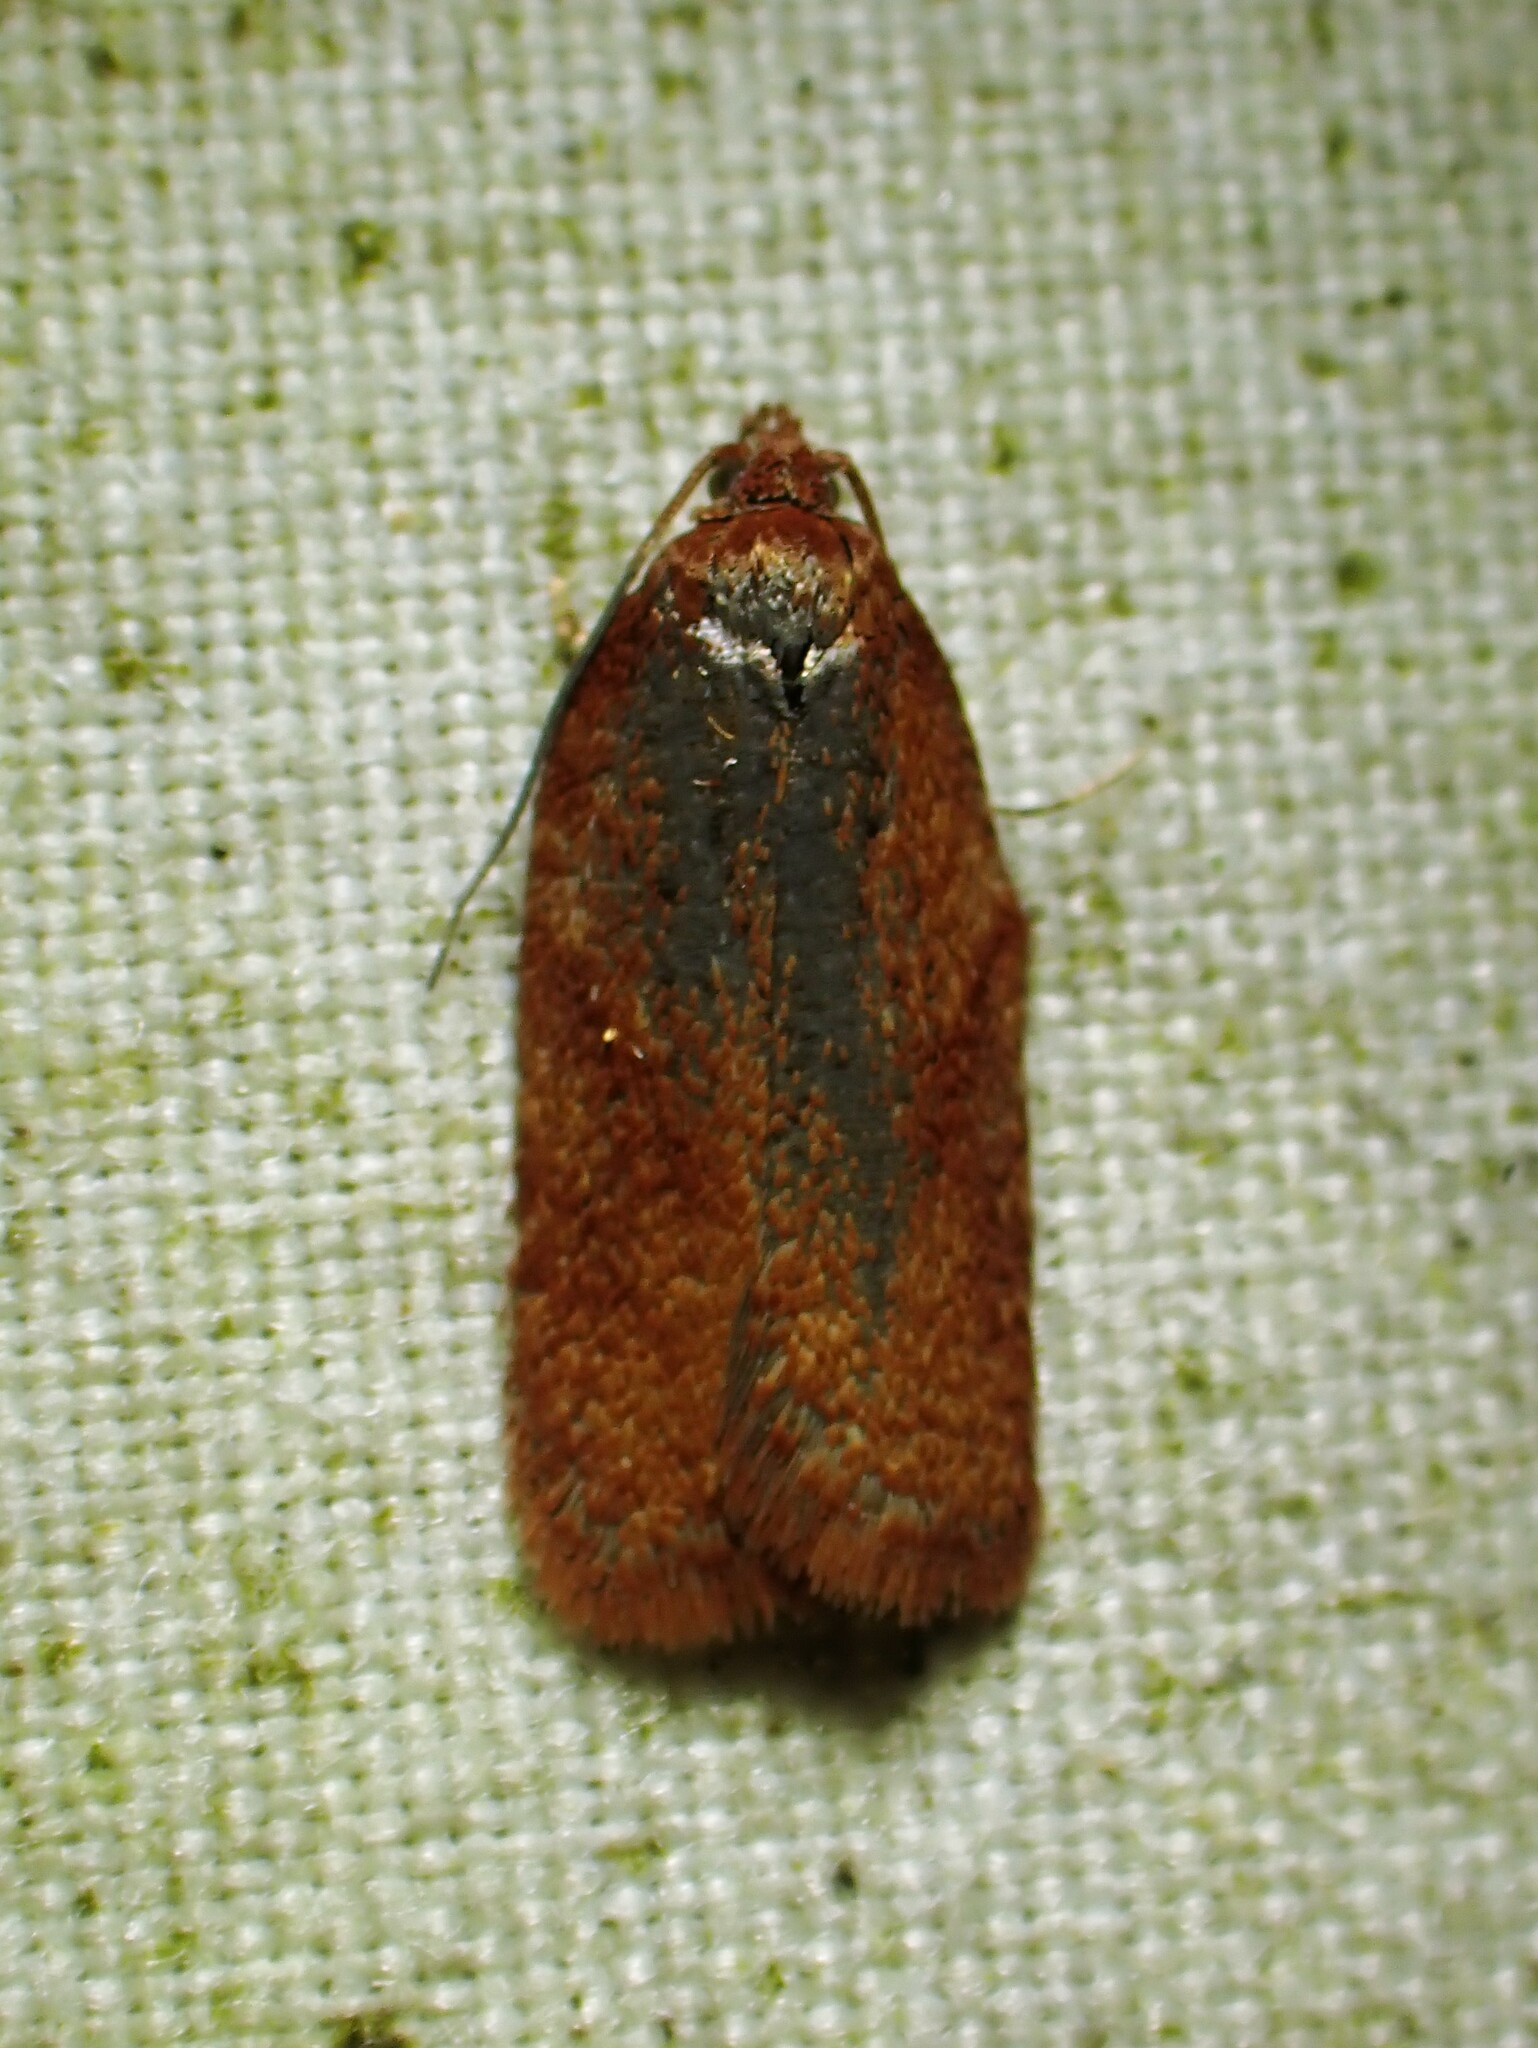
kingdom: Animalia
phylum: Arthropoda
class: Insecta
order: Lepidoptera
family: Tortricidae
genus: Acleris
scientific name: Acleris oxycoccana
